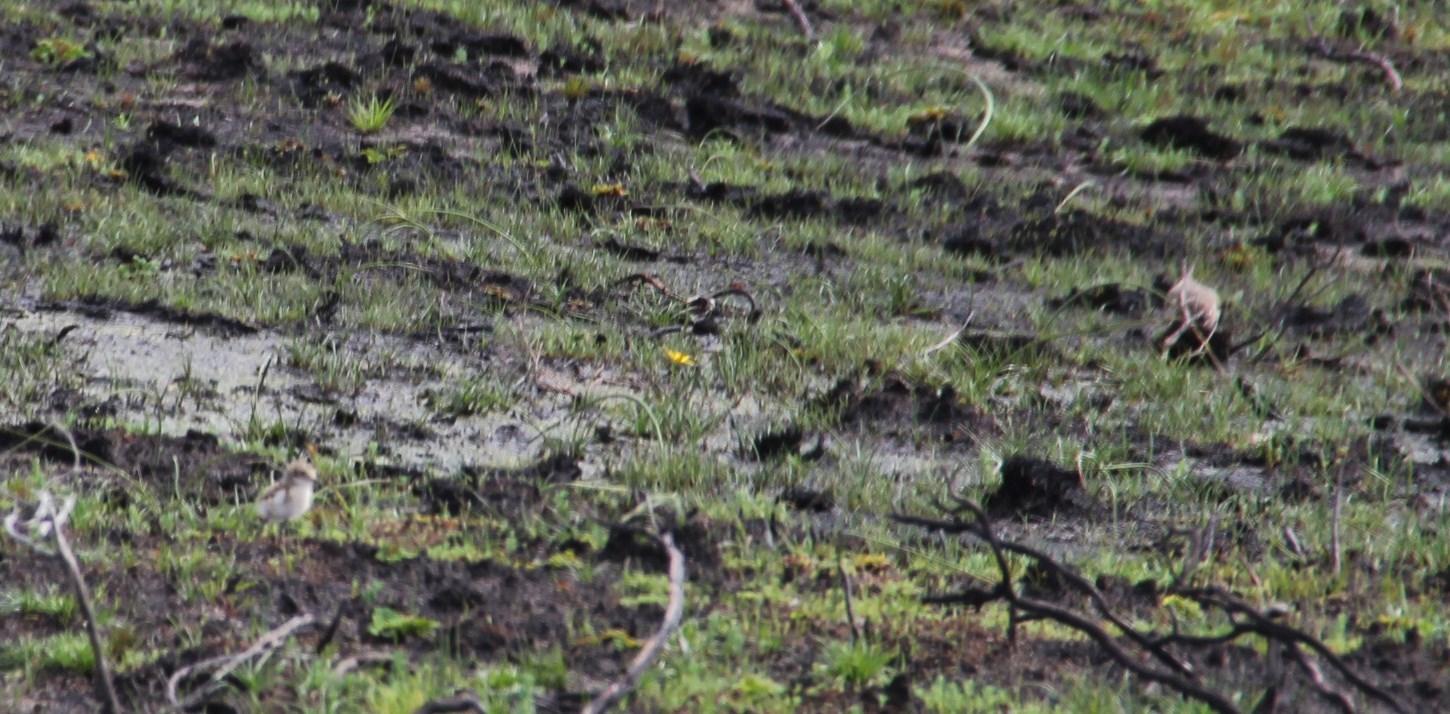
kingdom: Animalia
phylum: Chordata
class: Aves
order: Charadriiformes
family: Charadriidae
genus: Vanellus
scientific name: Vanellus coronatus
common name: Crowned lapwing
